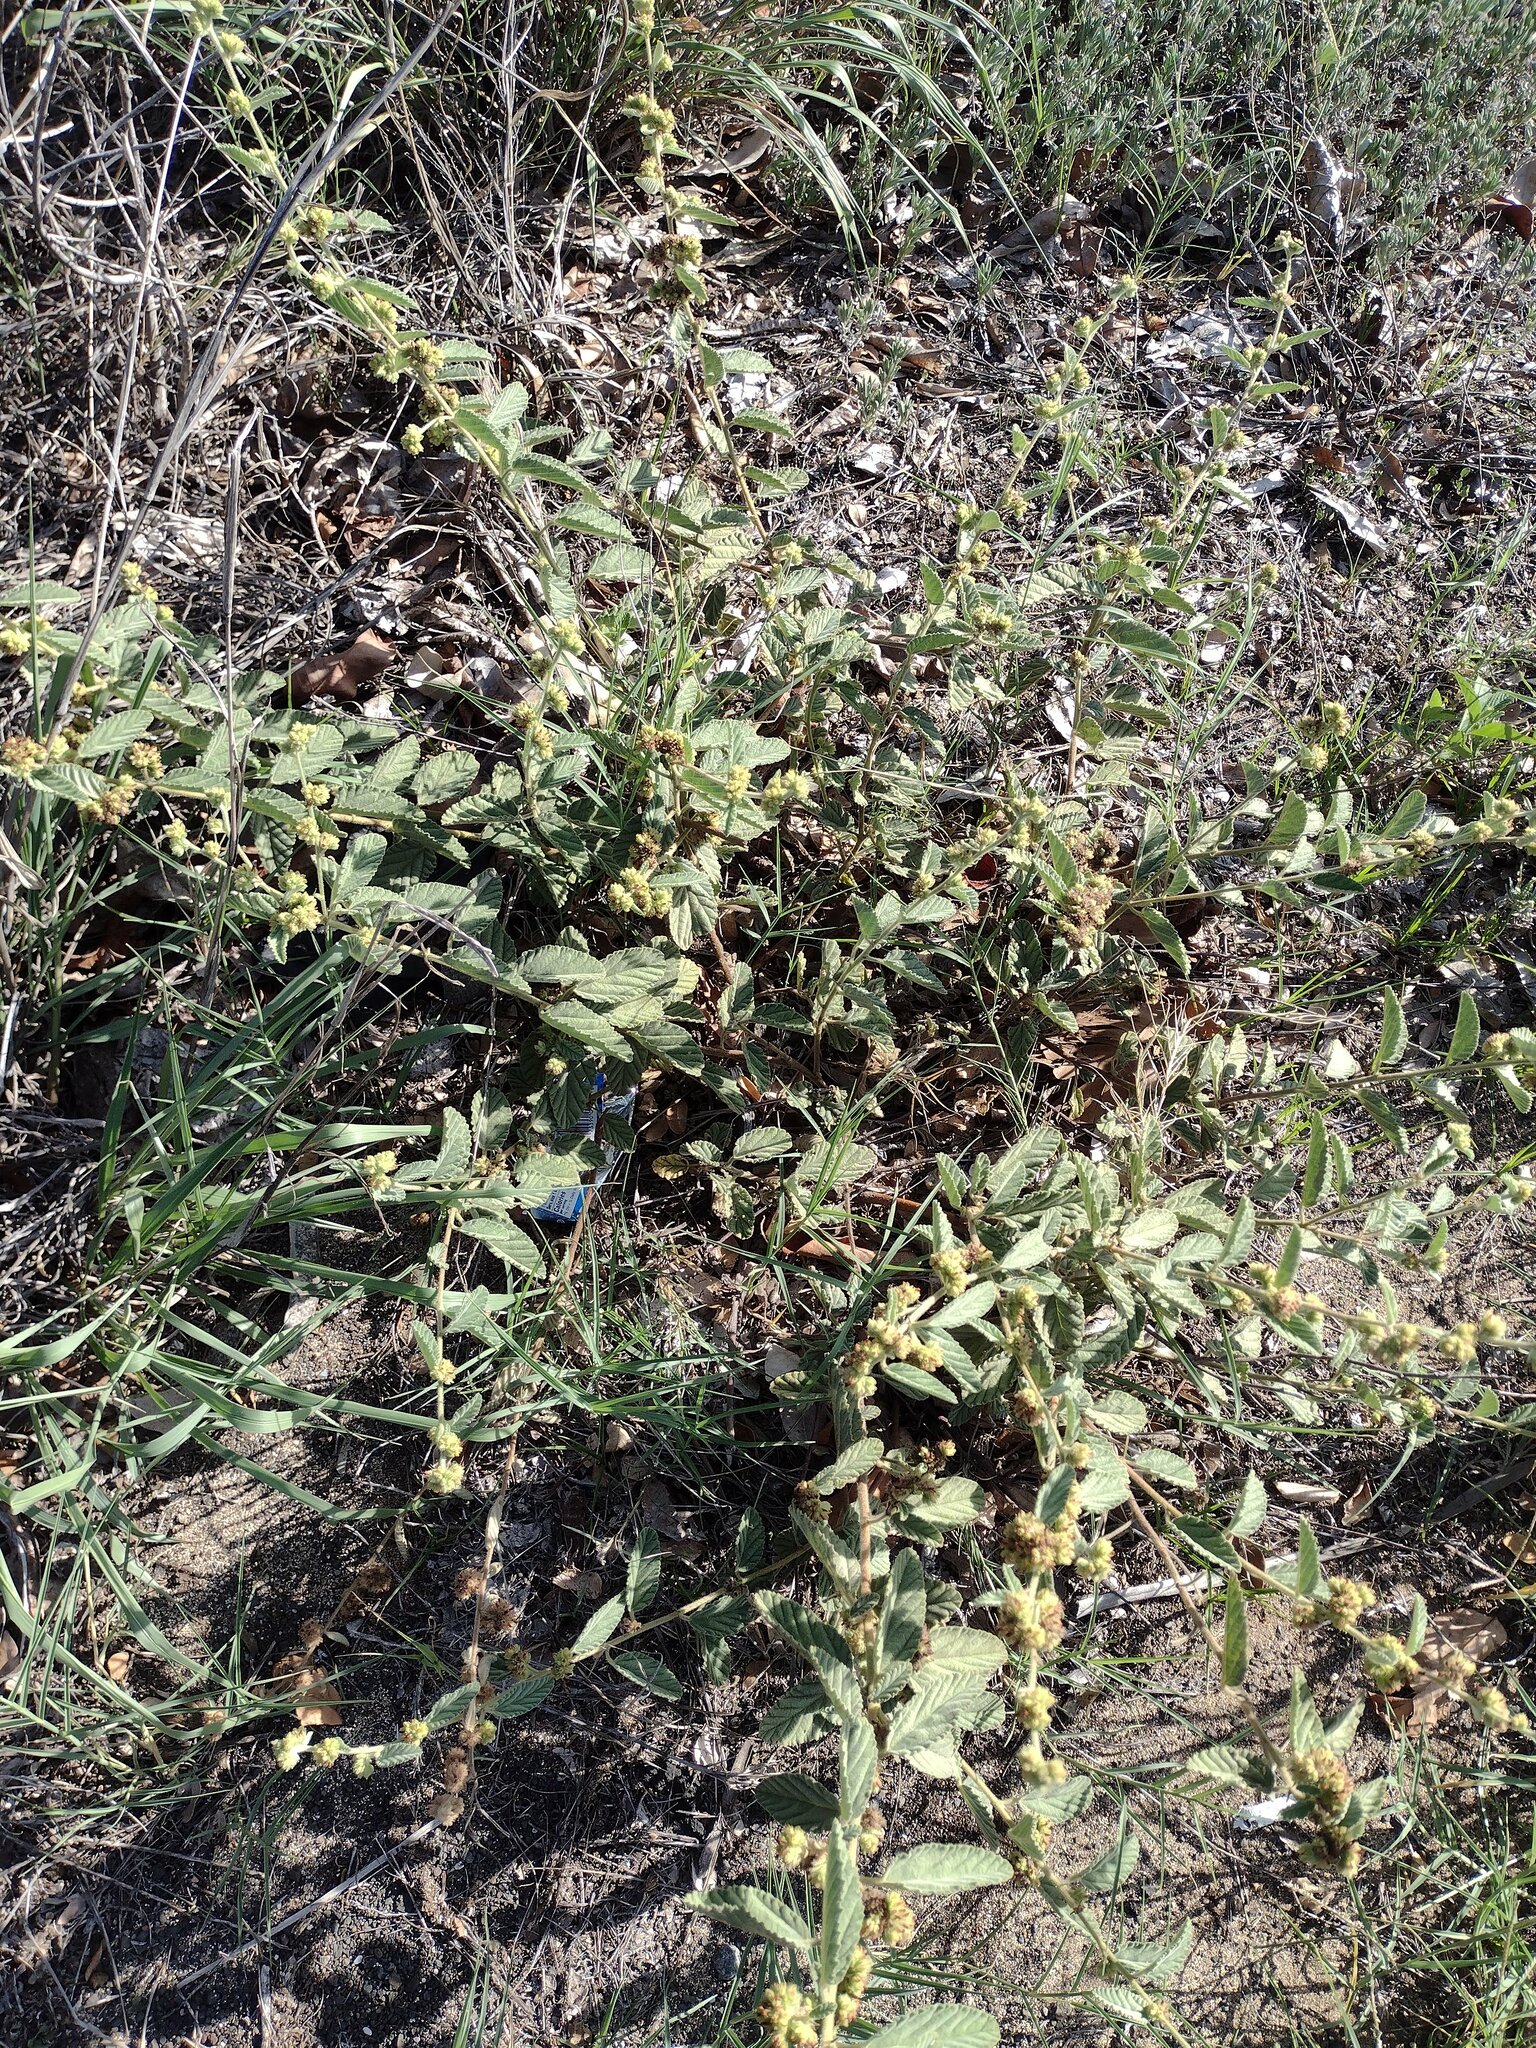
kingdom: Plantae
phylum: Tracheophyta
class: Magnoliopsida
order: Malvales
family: Malvaceae
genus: Waltheria
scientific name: Waltheria indica
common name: Leather-coat
